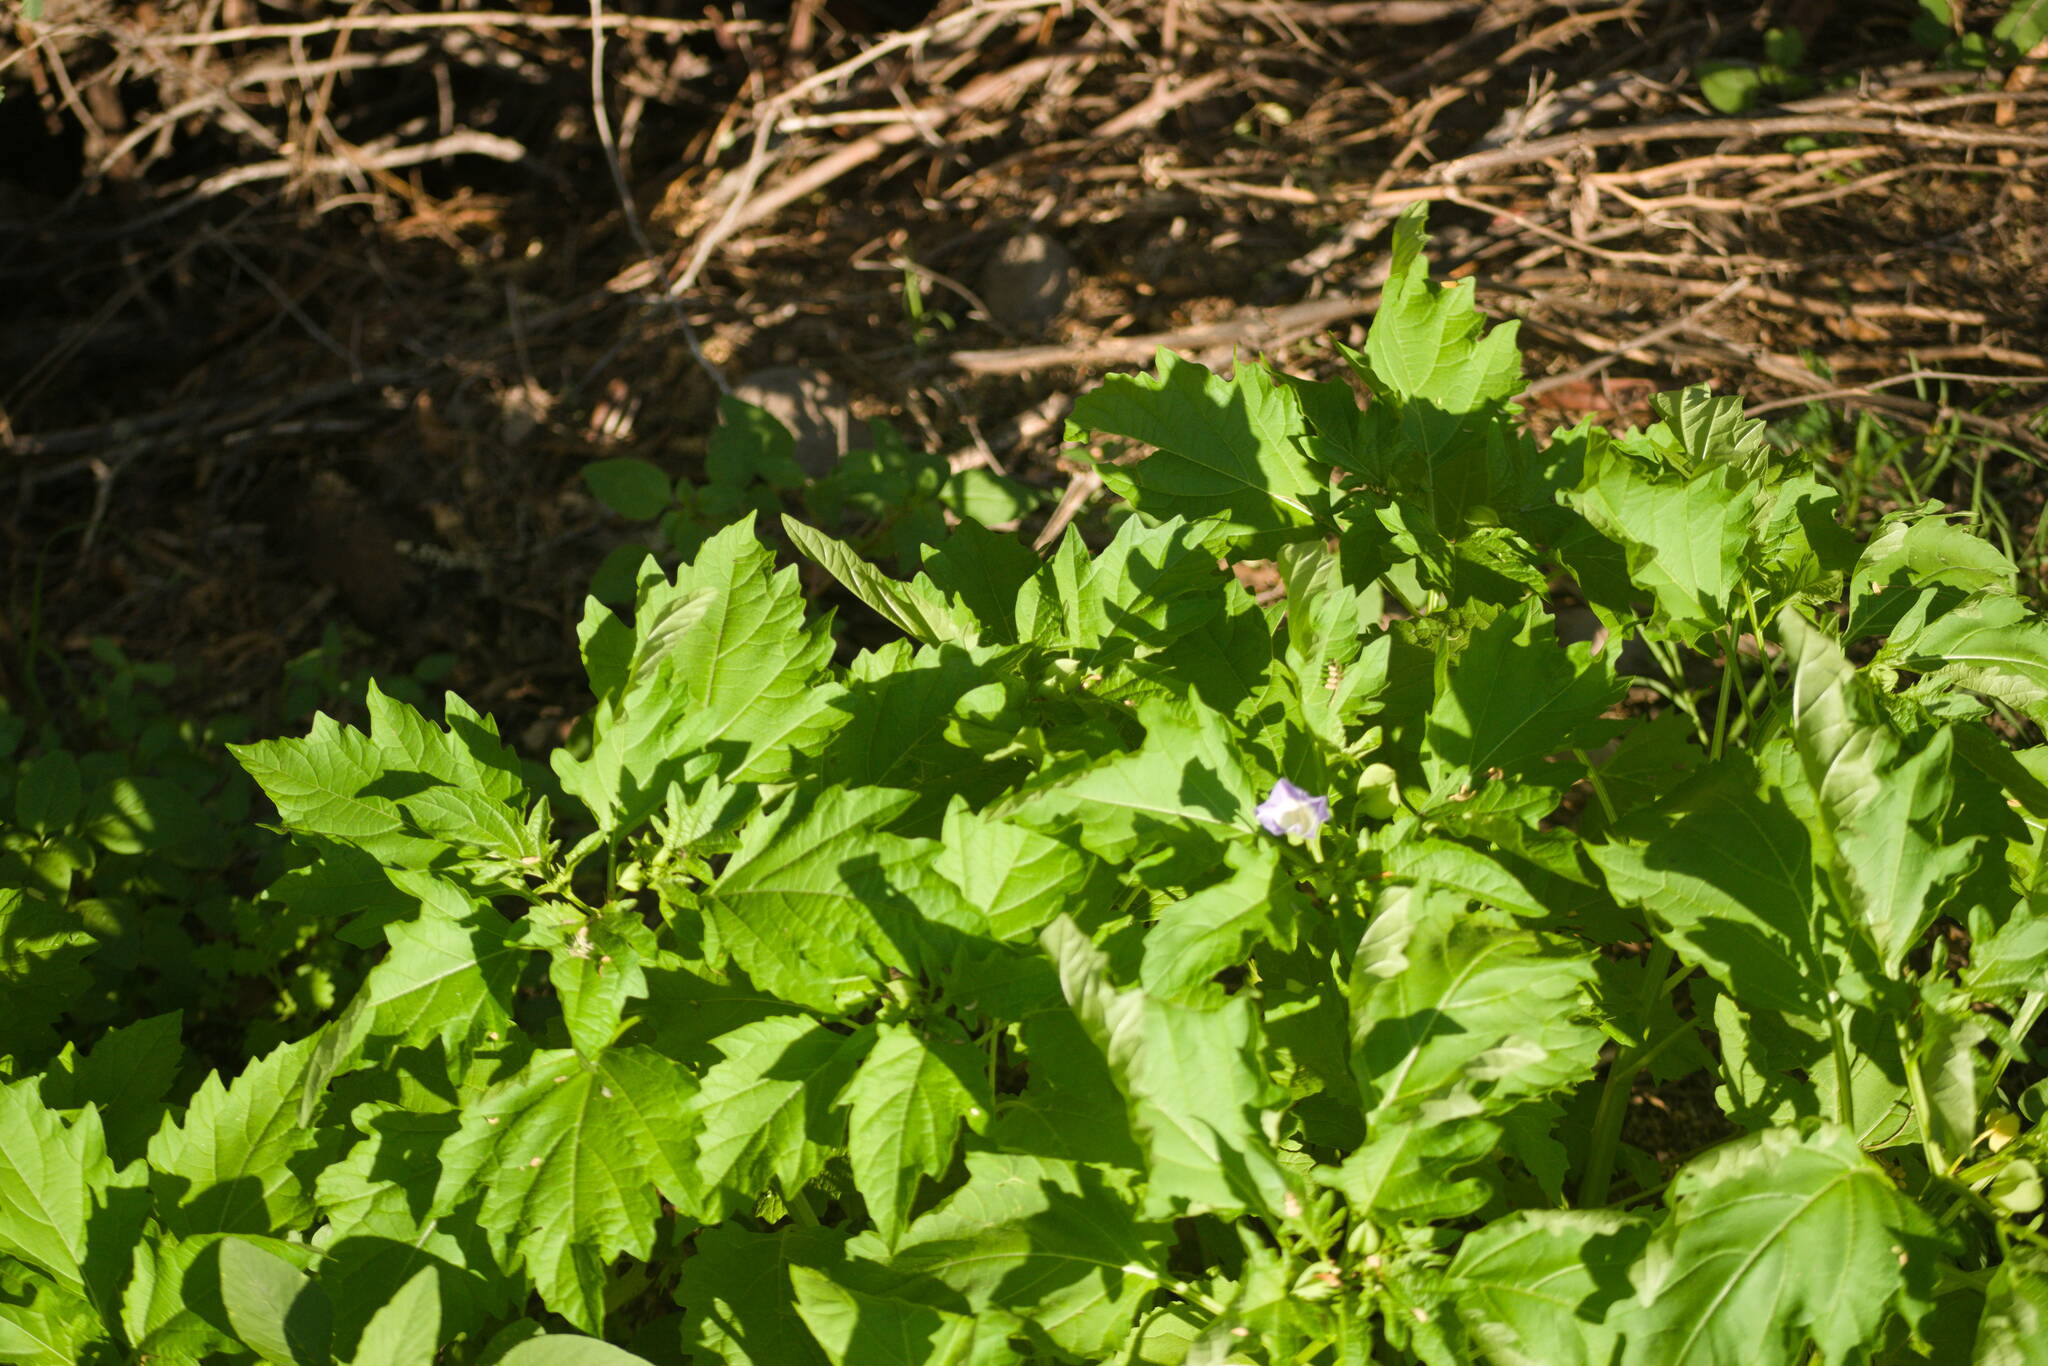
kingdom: Plantae
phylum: Tracheophyta
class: Magnoliopsida
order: Solanales
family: Solanaceae
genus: Nicandra
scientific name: Nicandra physalodes
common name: Apple-of-peru
